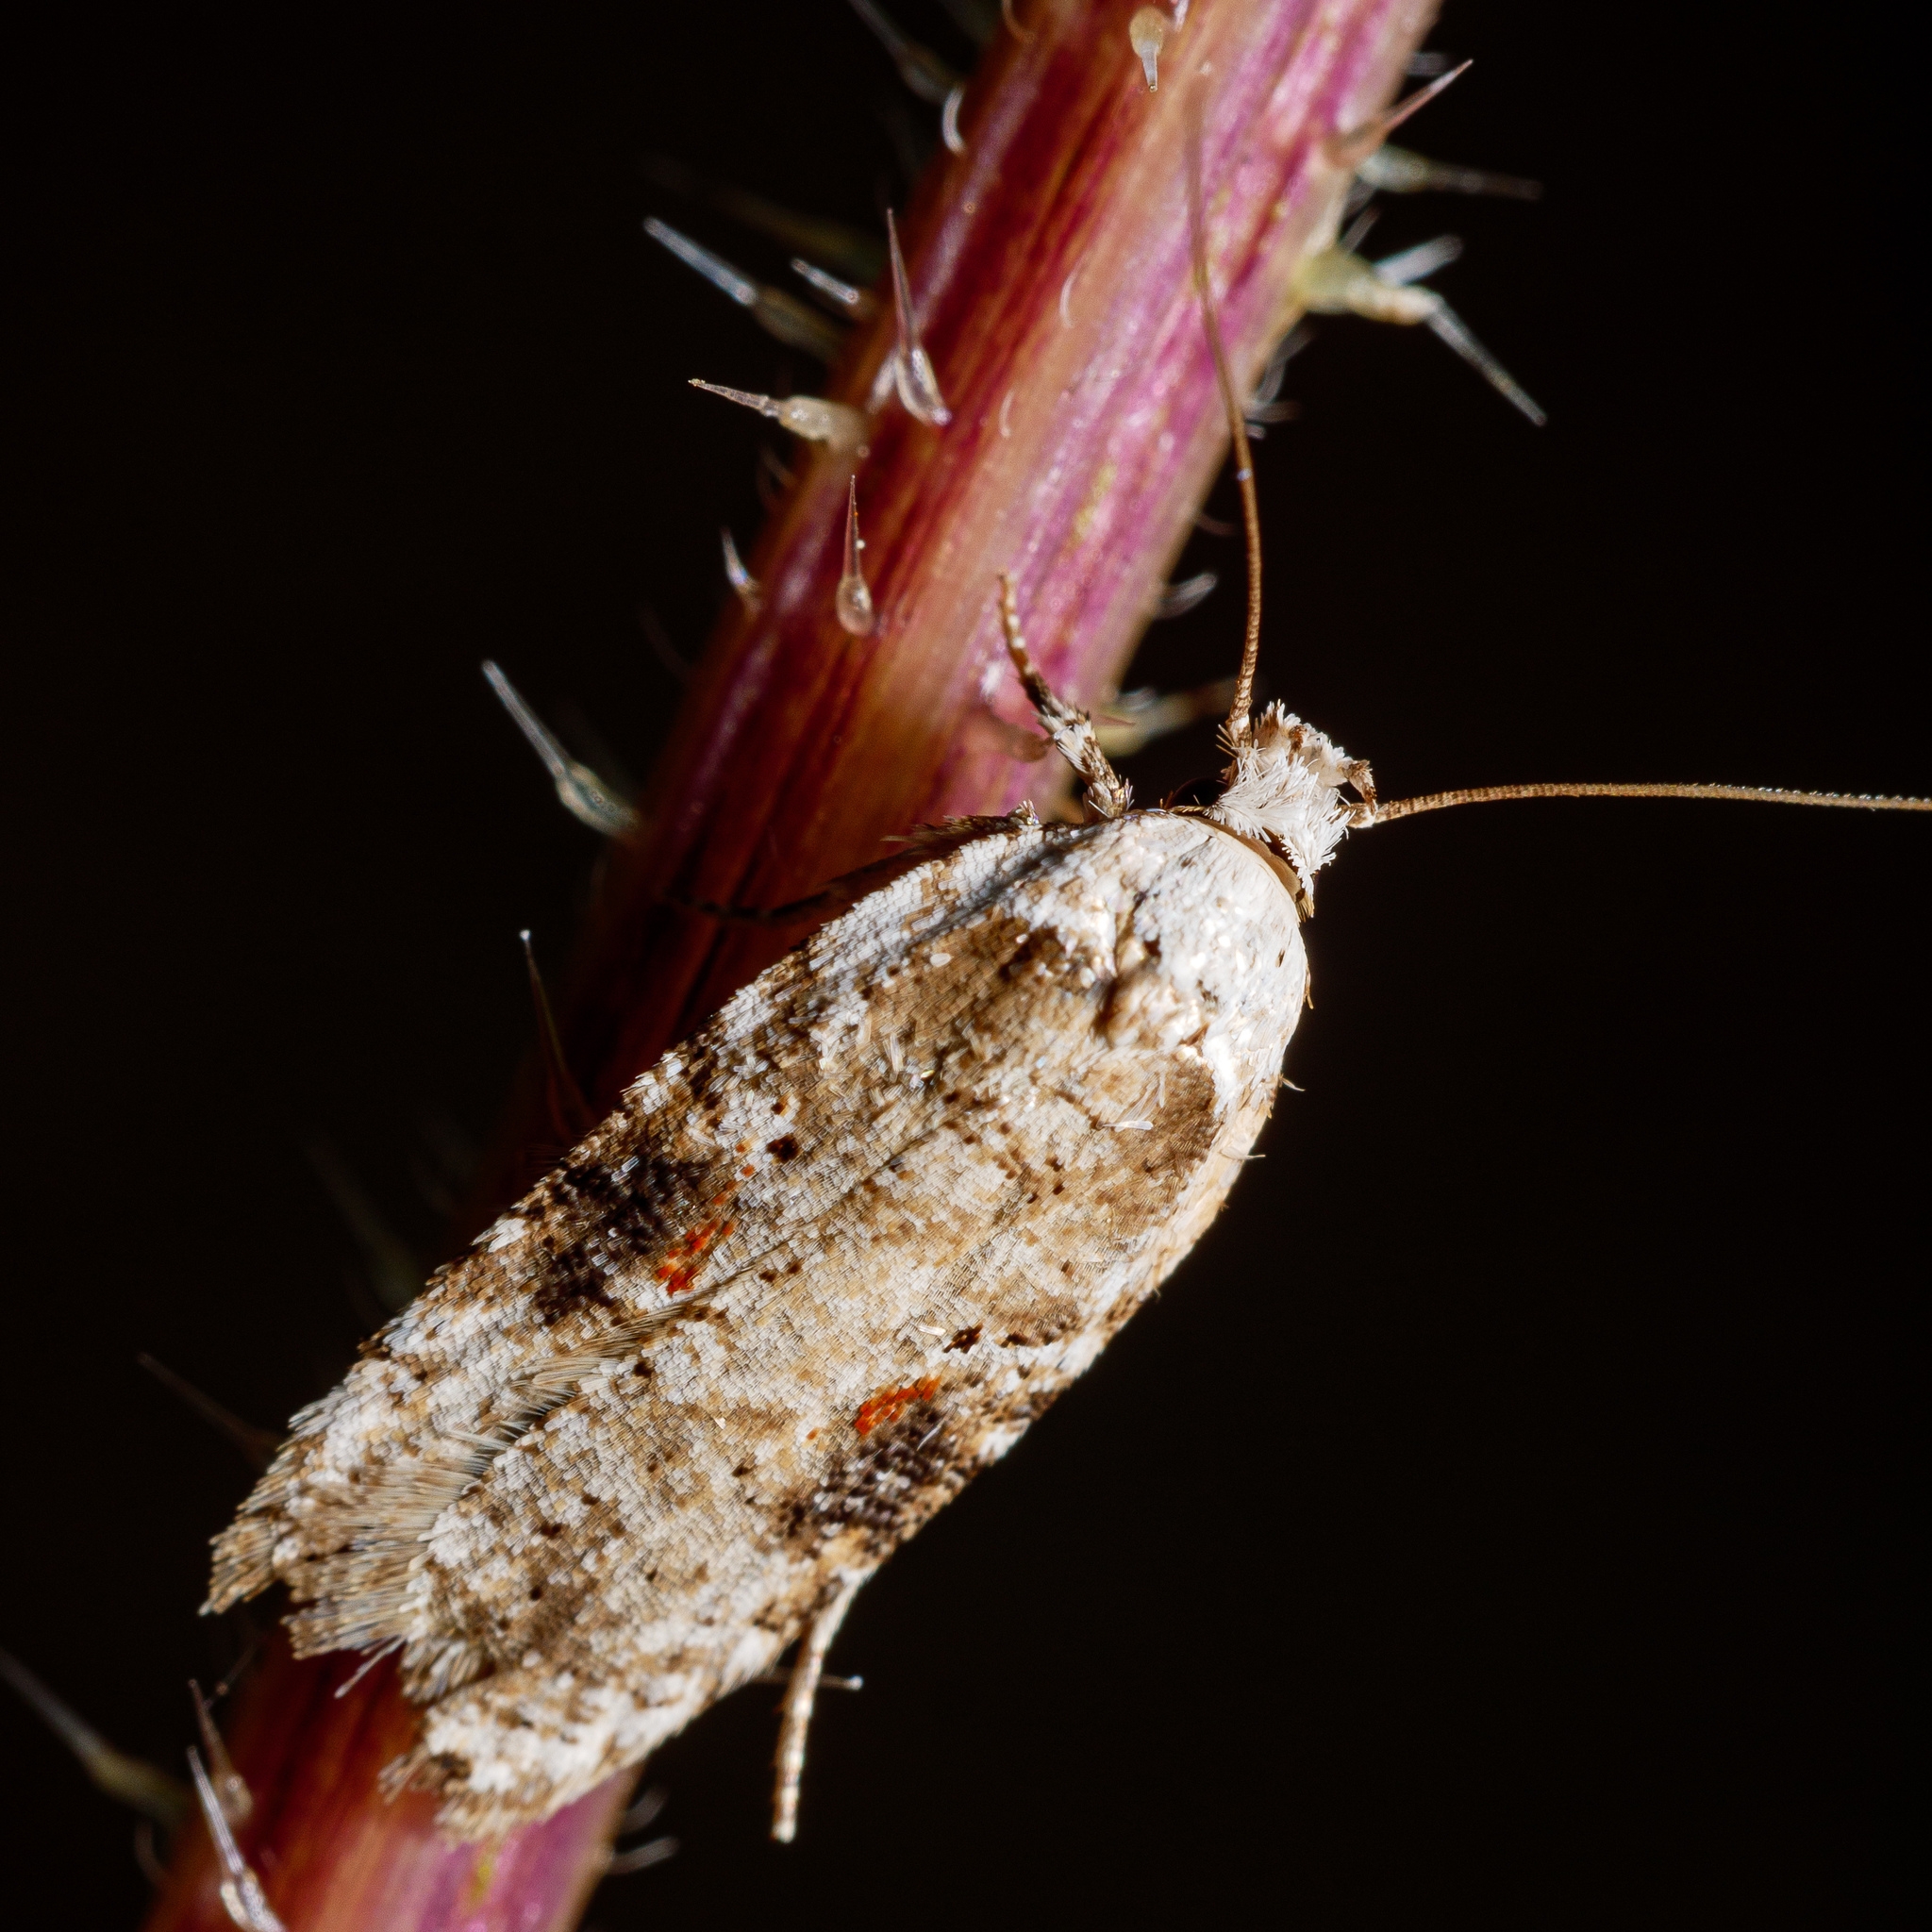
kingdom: Animalia
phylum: Arthropoda
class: Insecta
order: Lepidoptera
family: Depressariidae
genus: Agonopterix
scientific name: Agonopterix alstroemeriana
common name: Moth
